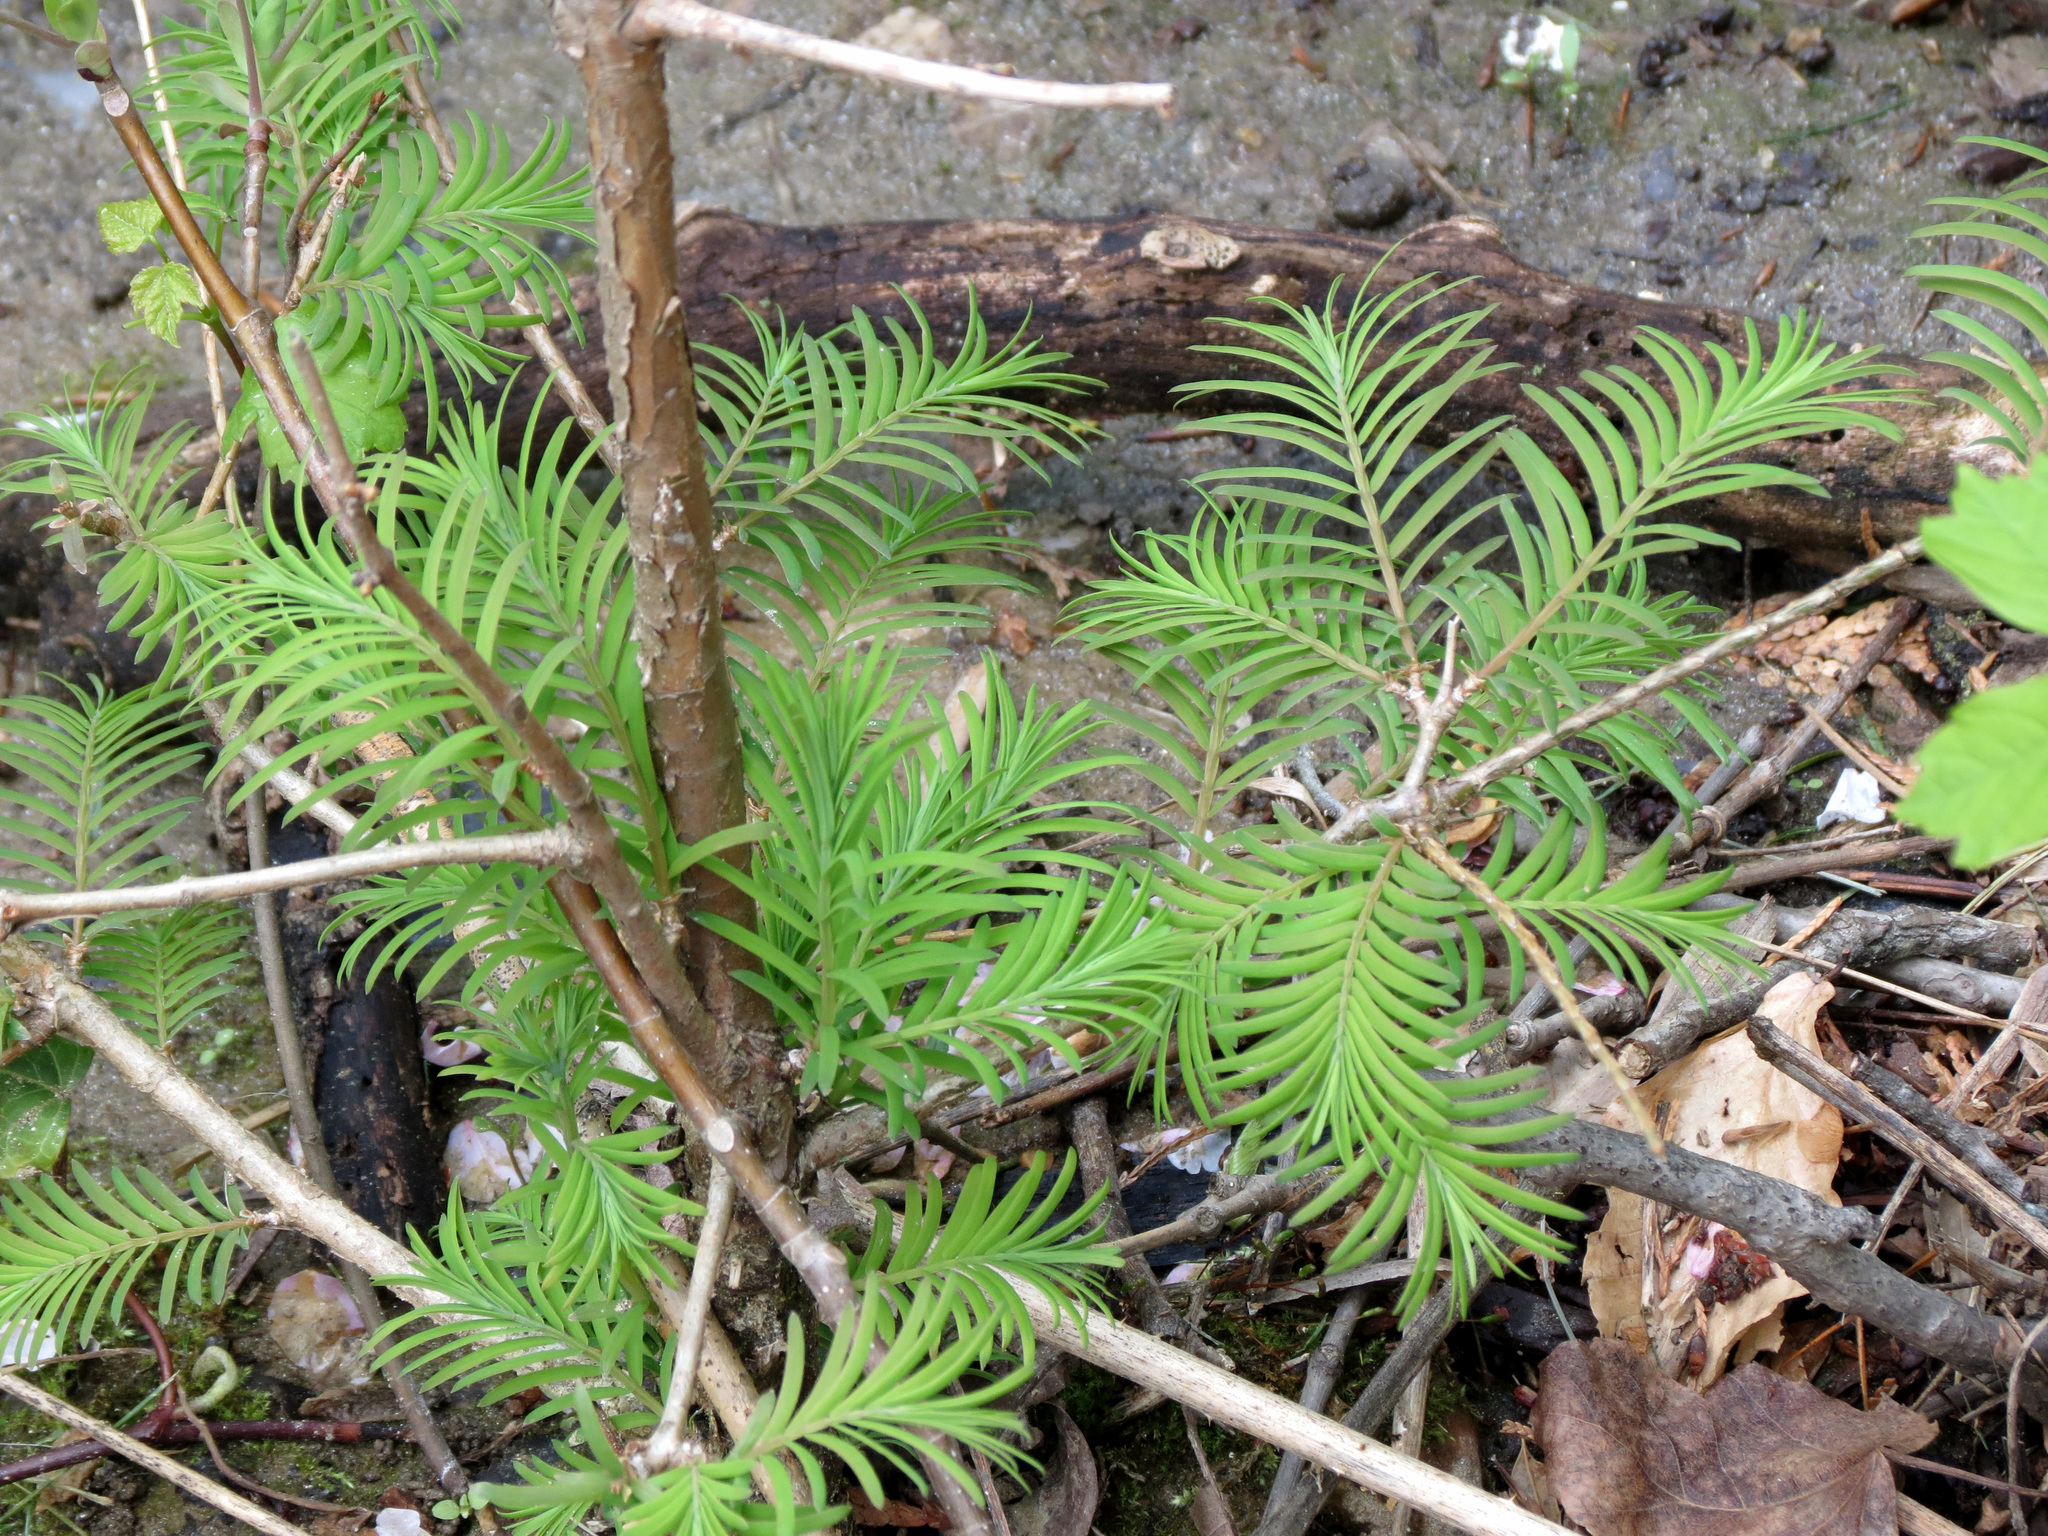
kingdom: Plantae
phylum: Tracheophyta
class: Pinopsida
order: Pinales
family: Cupressaceae
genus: Taxodium
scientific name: Taxodium distichum
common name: Bald cypress
